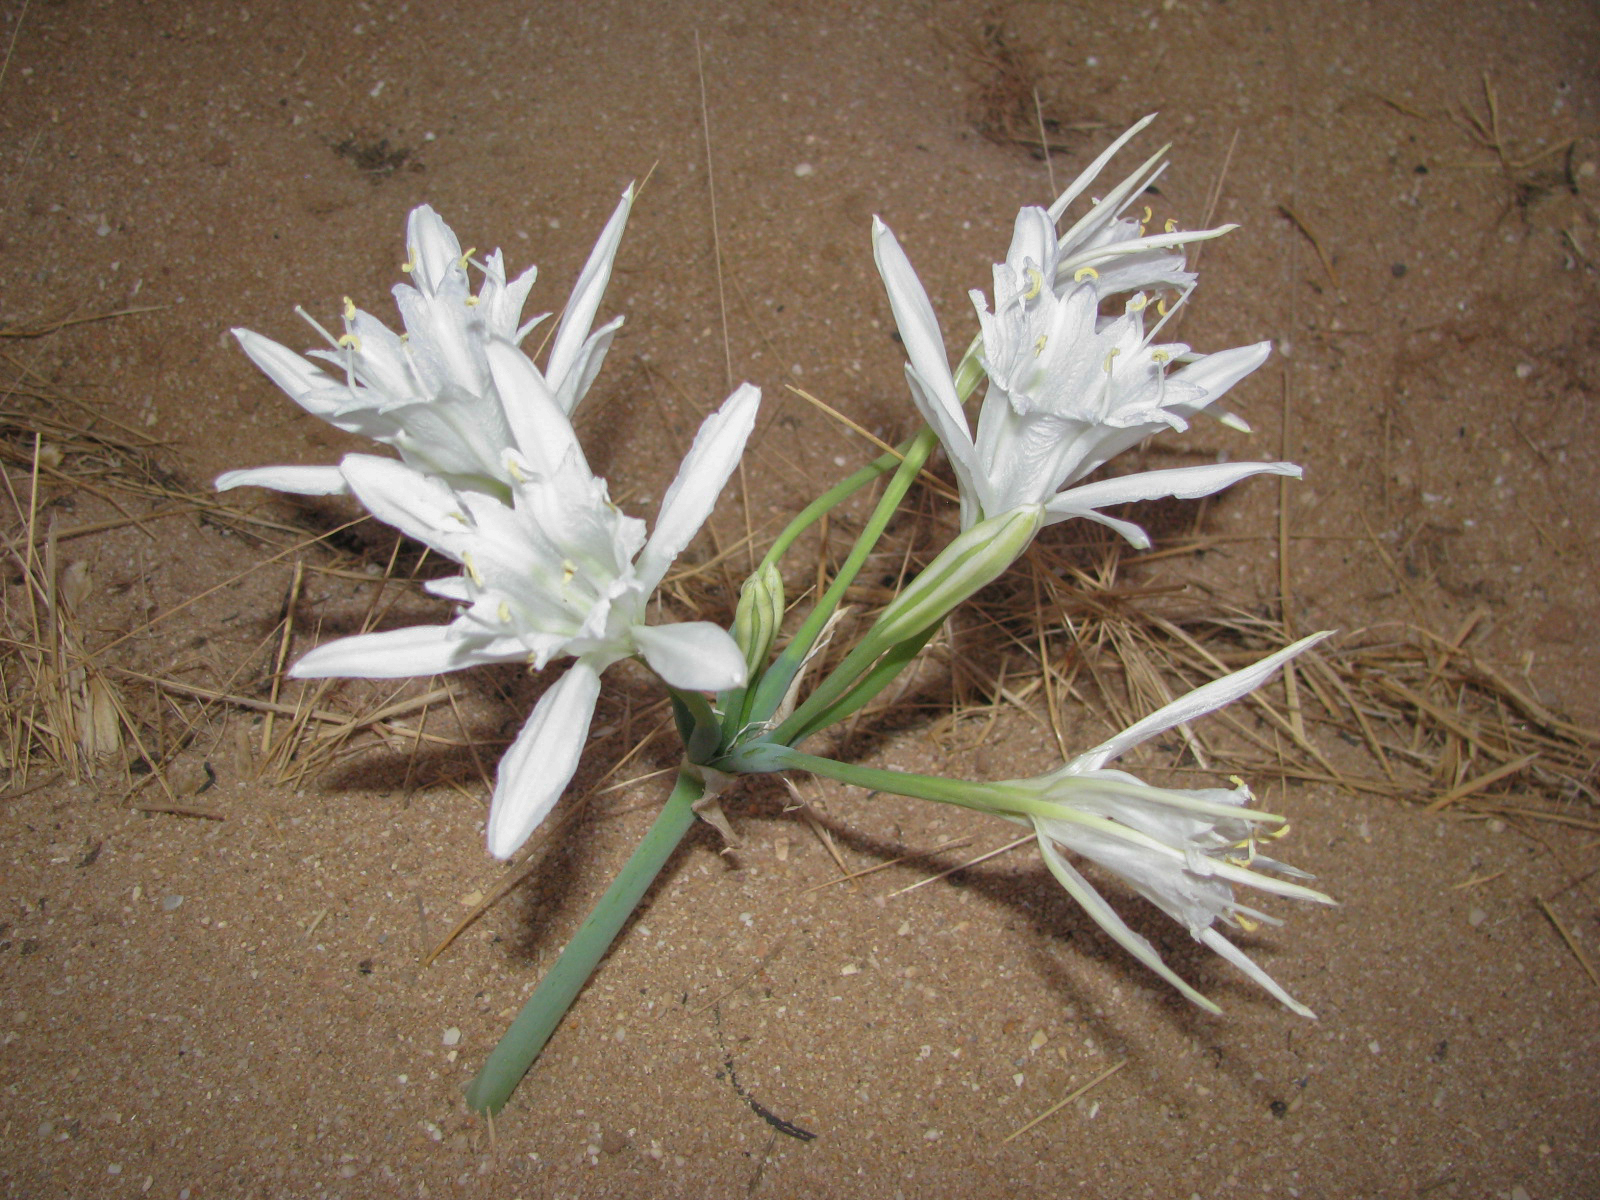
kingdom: Plantae
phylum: Tracheophyta
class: Liliopsida
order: Asparagales
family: Amaryllidaceae
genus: Pancratium
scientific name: Pancratium maritimum
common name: Sea-daffodil
